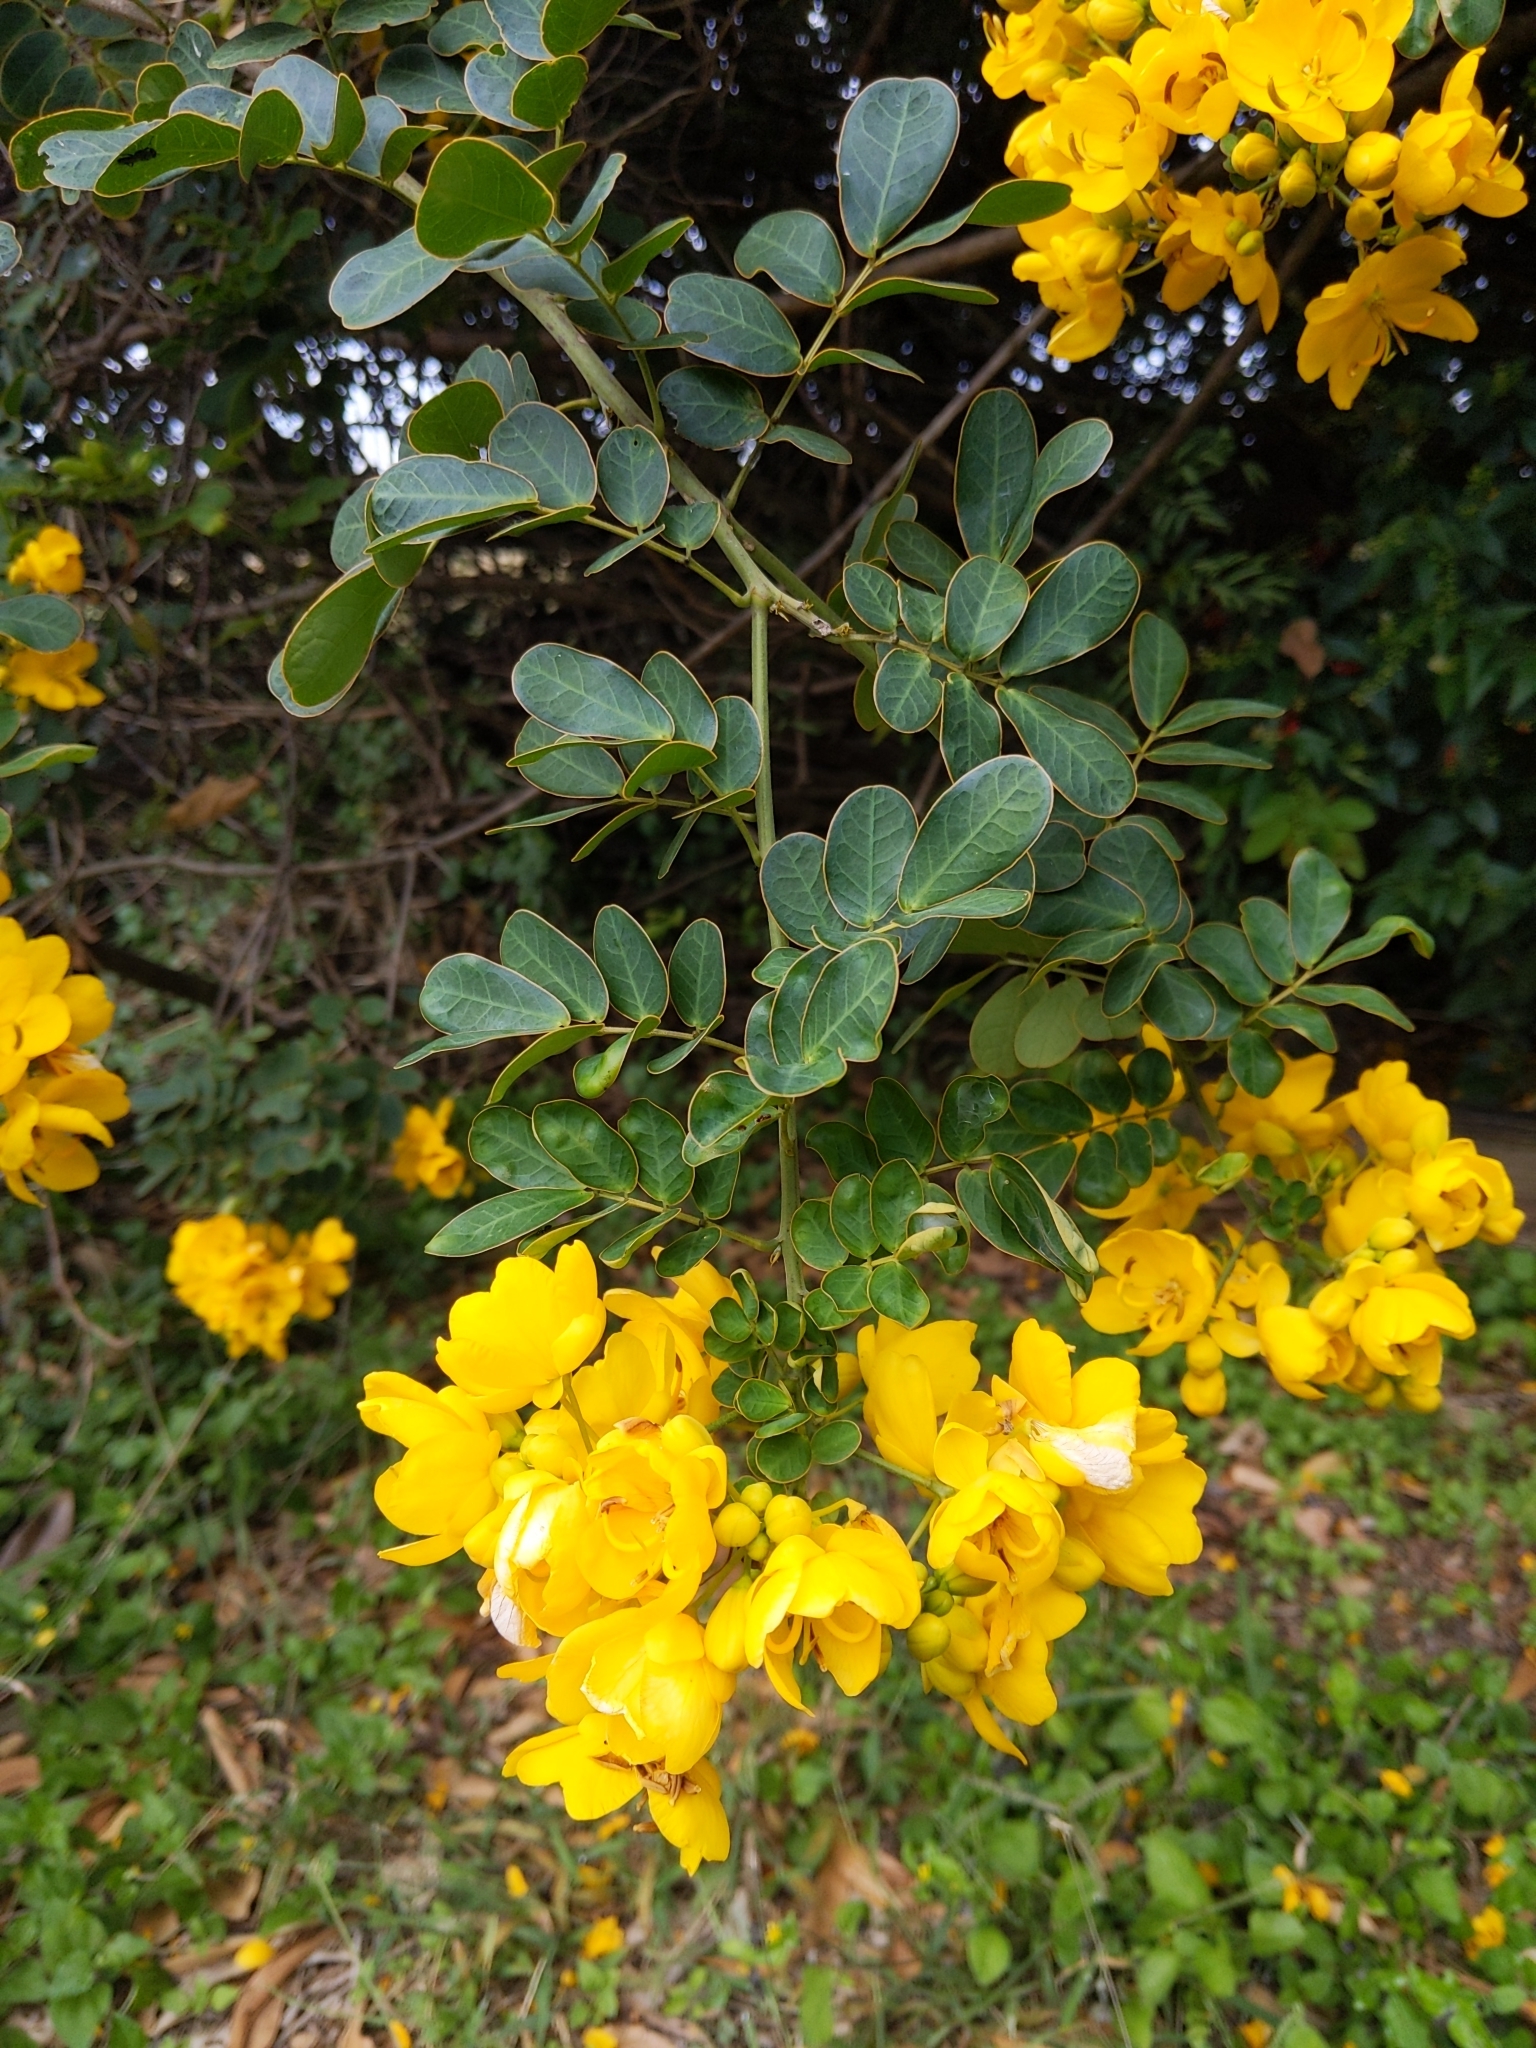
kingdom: Plantae
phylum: Tracheophyta
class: Magnoliopsida
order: Fabales
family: Fabaceae
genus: Senna
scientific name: Senna pendula
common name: Easter cassia
